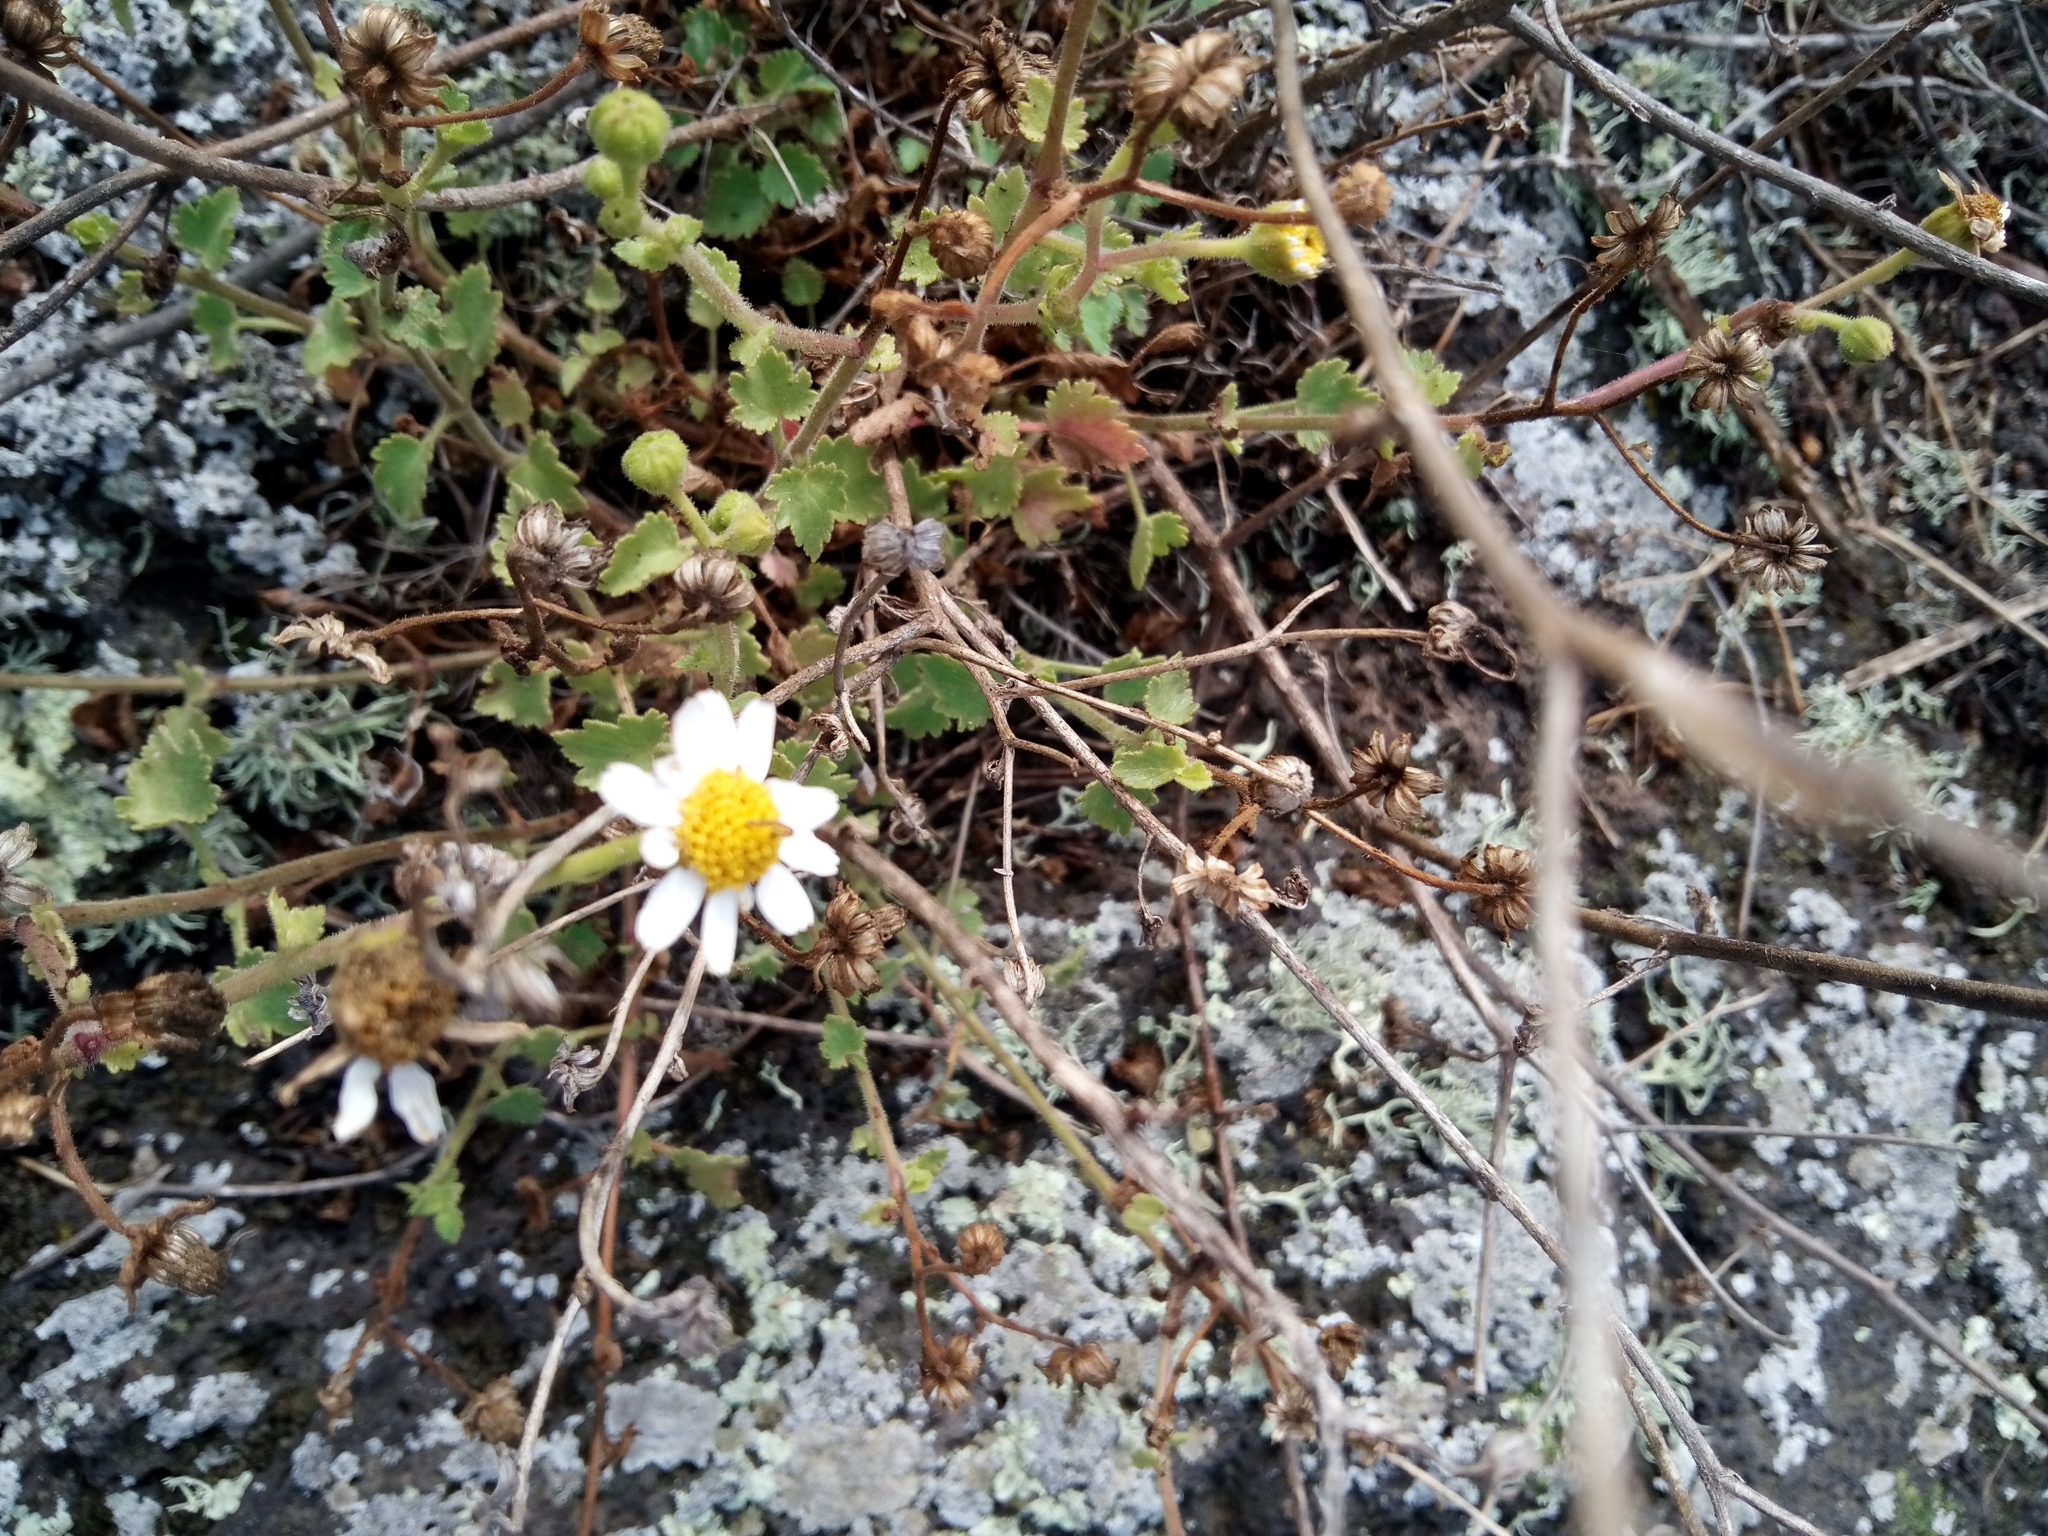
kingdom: Plantae
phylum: Tracheophyta
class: Magnoliopsida
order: Asterales
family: Asteraceae
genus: Perityle
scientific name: Perityle brandegeeana
